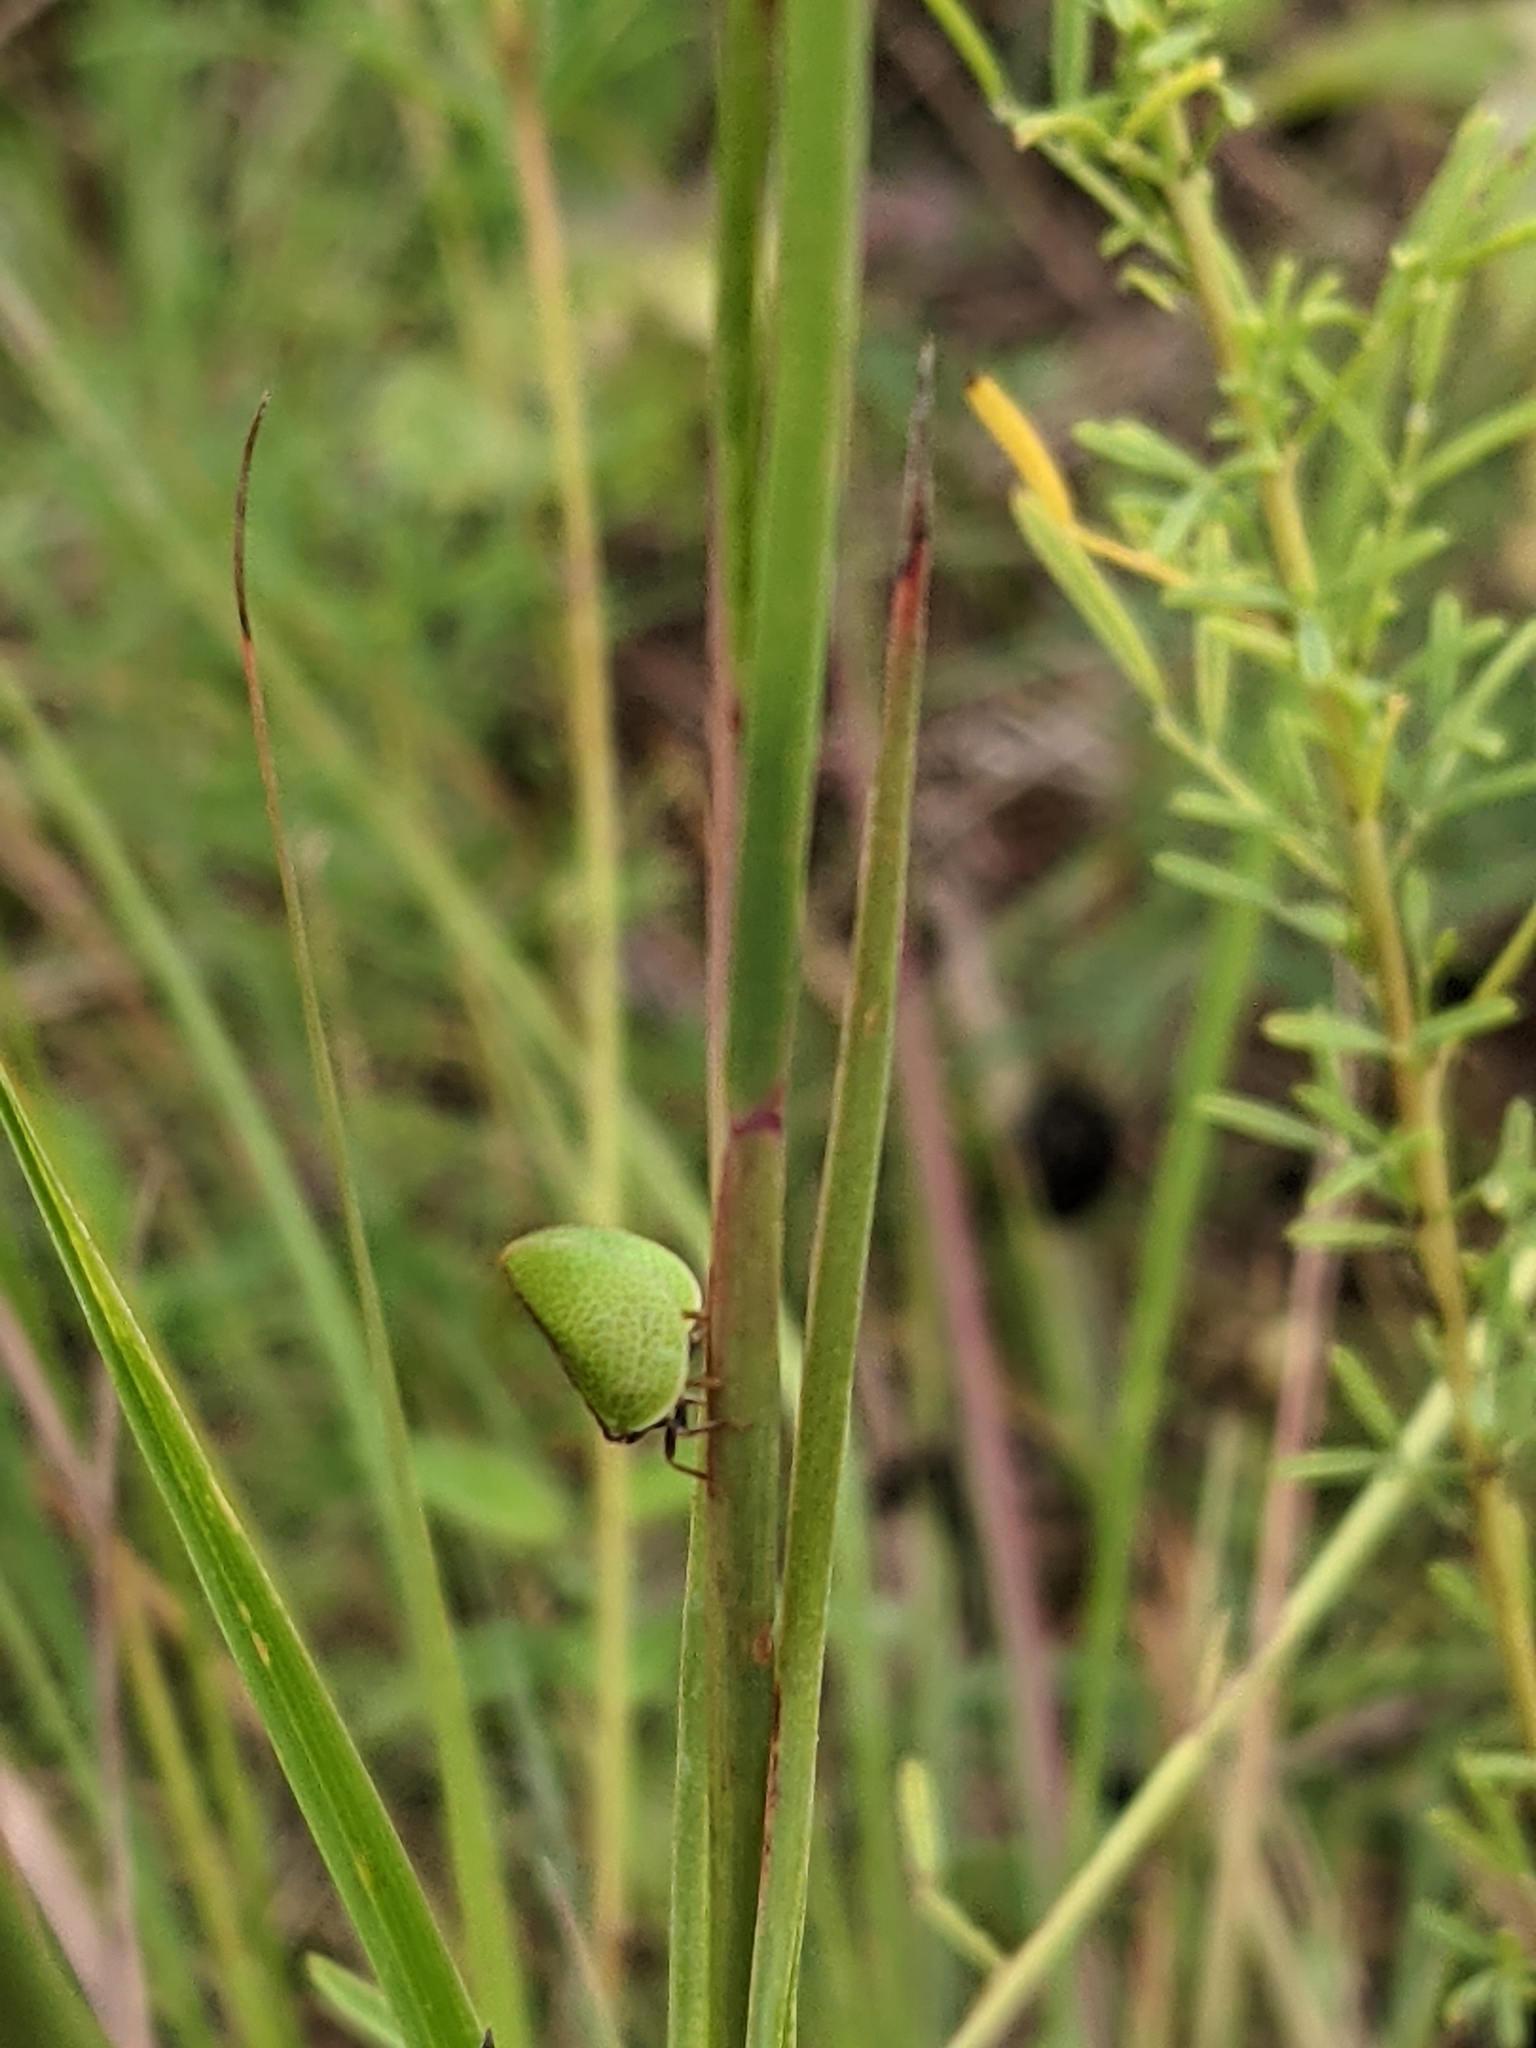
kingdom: Animalia
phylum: Arthropoda
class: Insecta
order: Hemiptera
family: Acanaloniidae
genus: Acanalonia
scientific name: Acanalonia bivittata
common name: Two-striped planthopper
